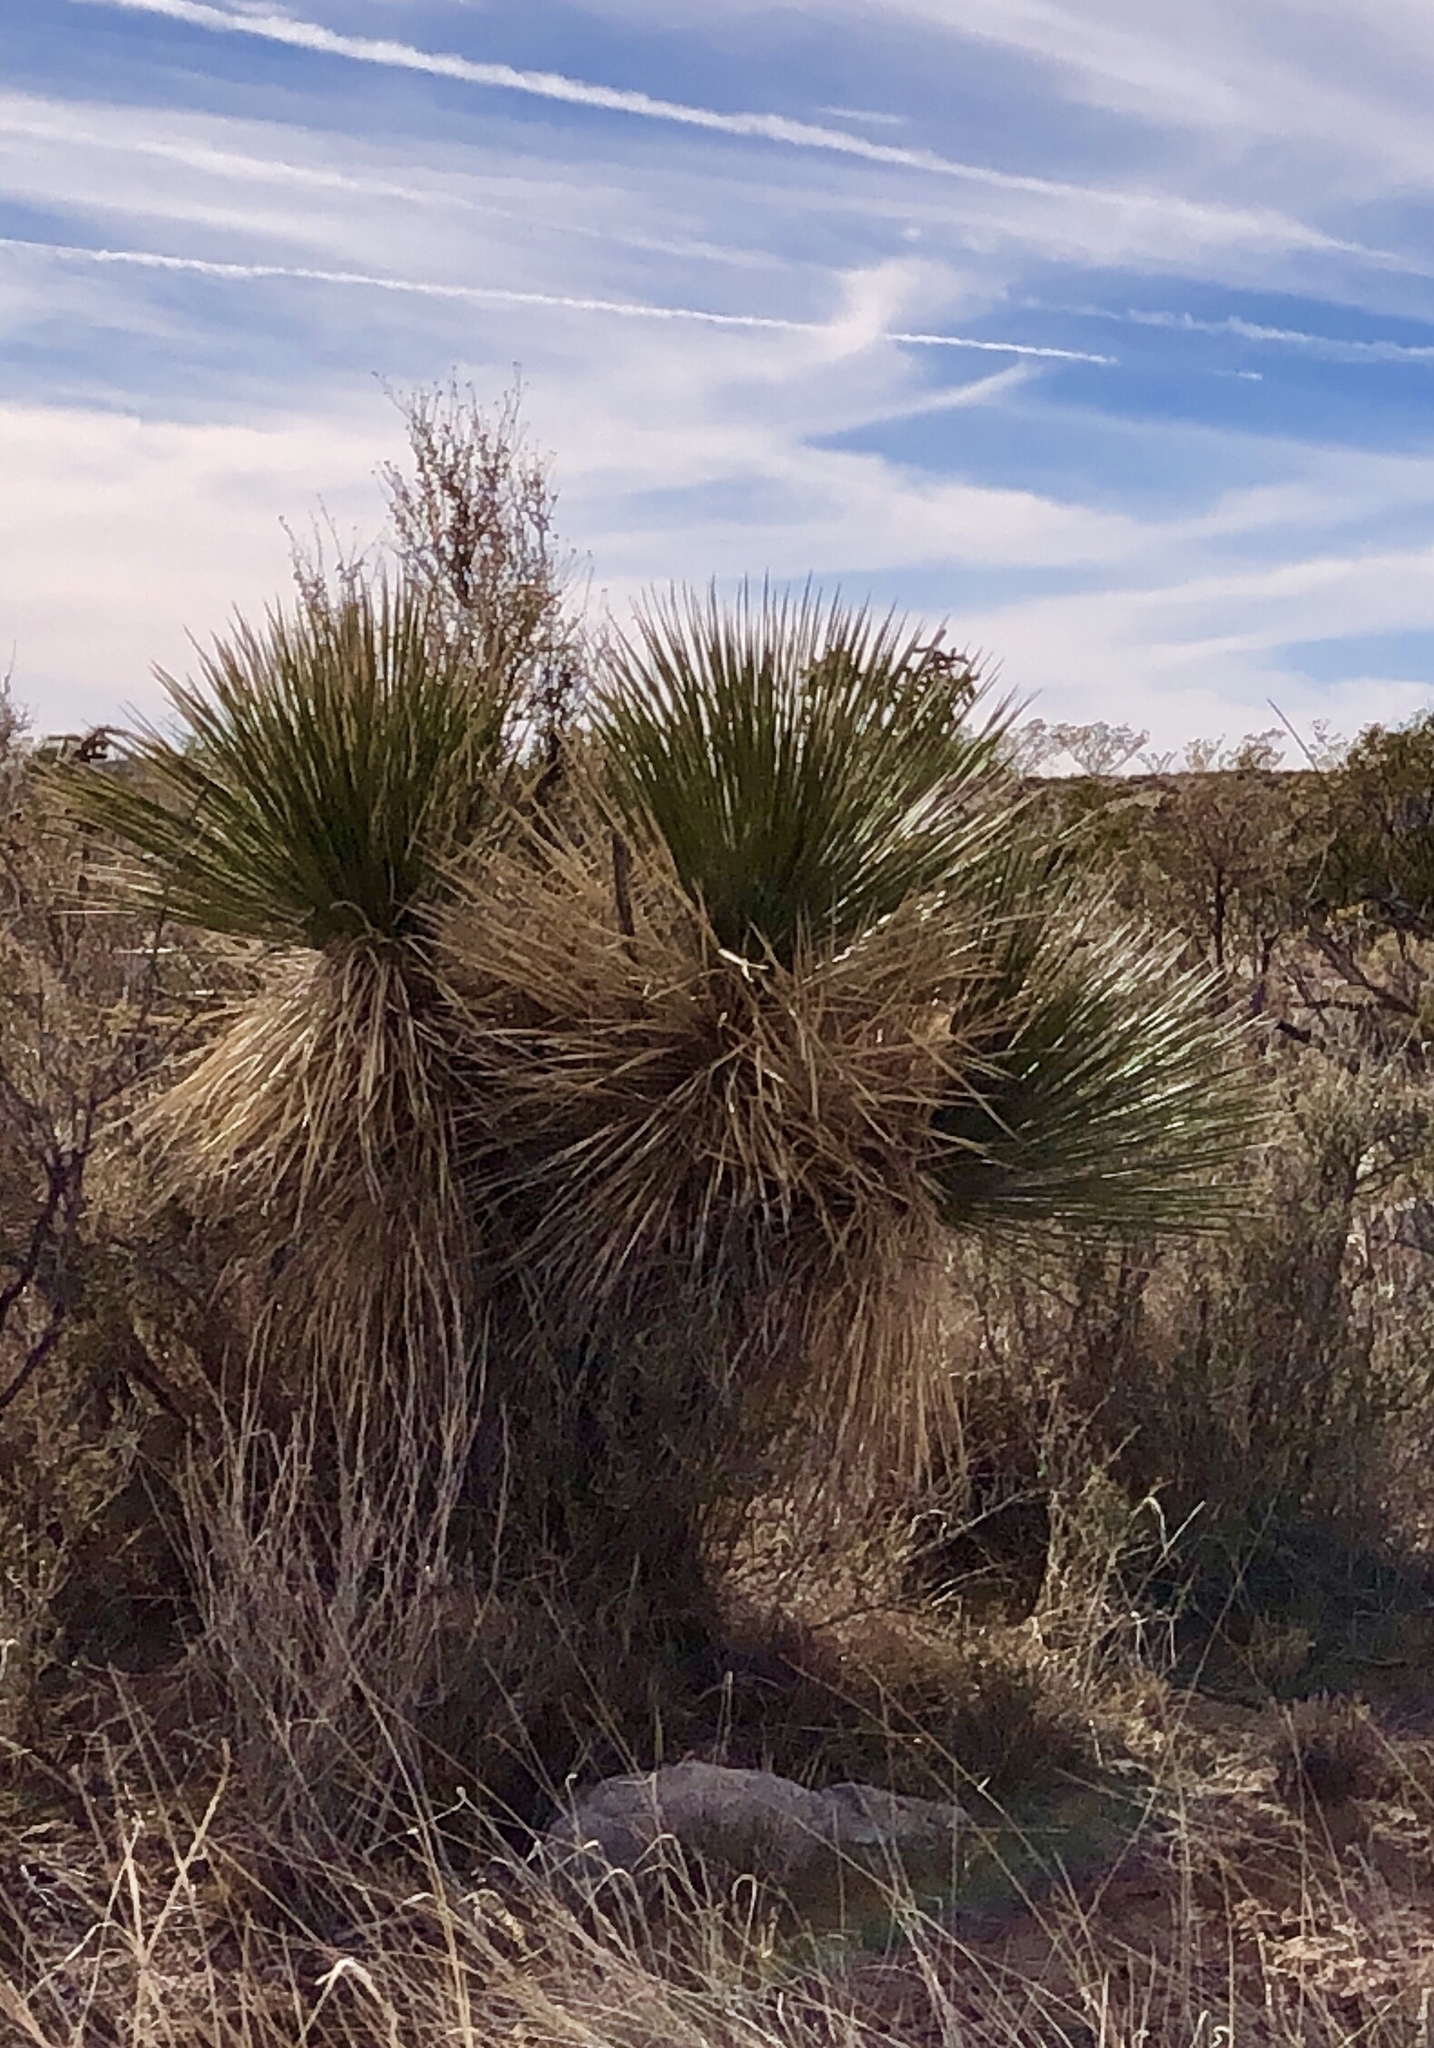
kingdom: Plantae
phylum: Tracheophyta
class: Liliopsida
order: Asparagales
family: Asparagaceae
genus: Yucca
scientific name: Yucca elata
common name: Palmella
